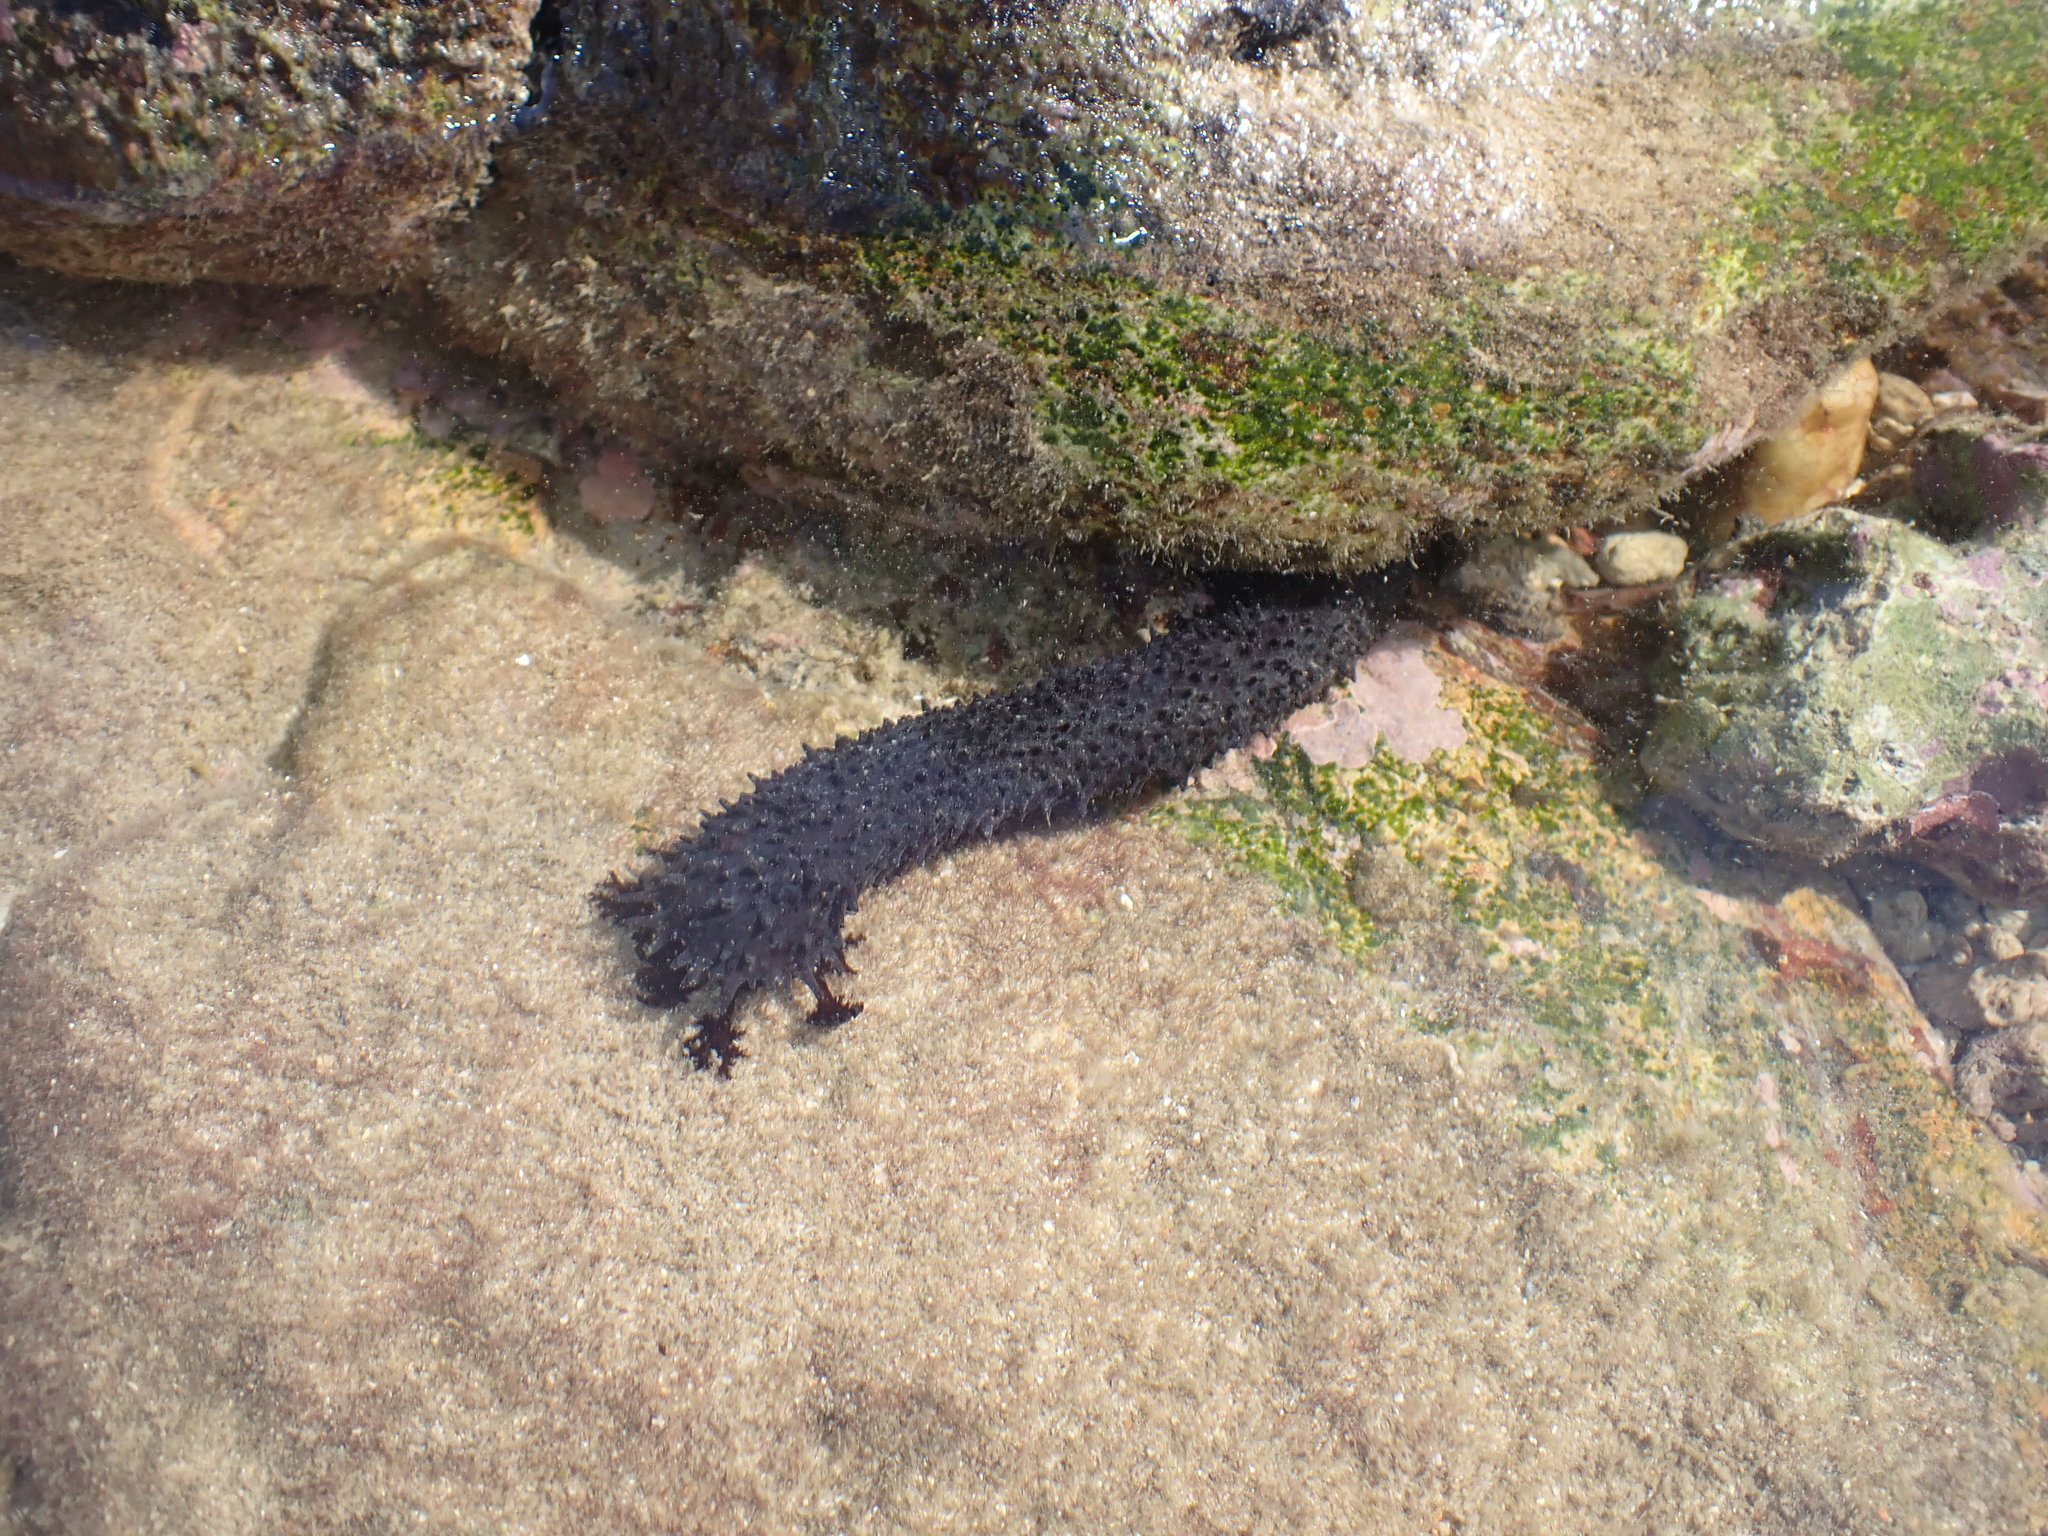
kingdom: Animalia
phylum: Echinodermata
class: Holothuroidea
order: Holothuriida
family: Holothuriidae
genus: Holothuria
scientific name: Holothuria leucospilota
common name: White thread fish
